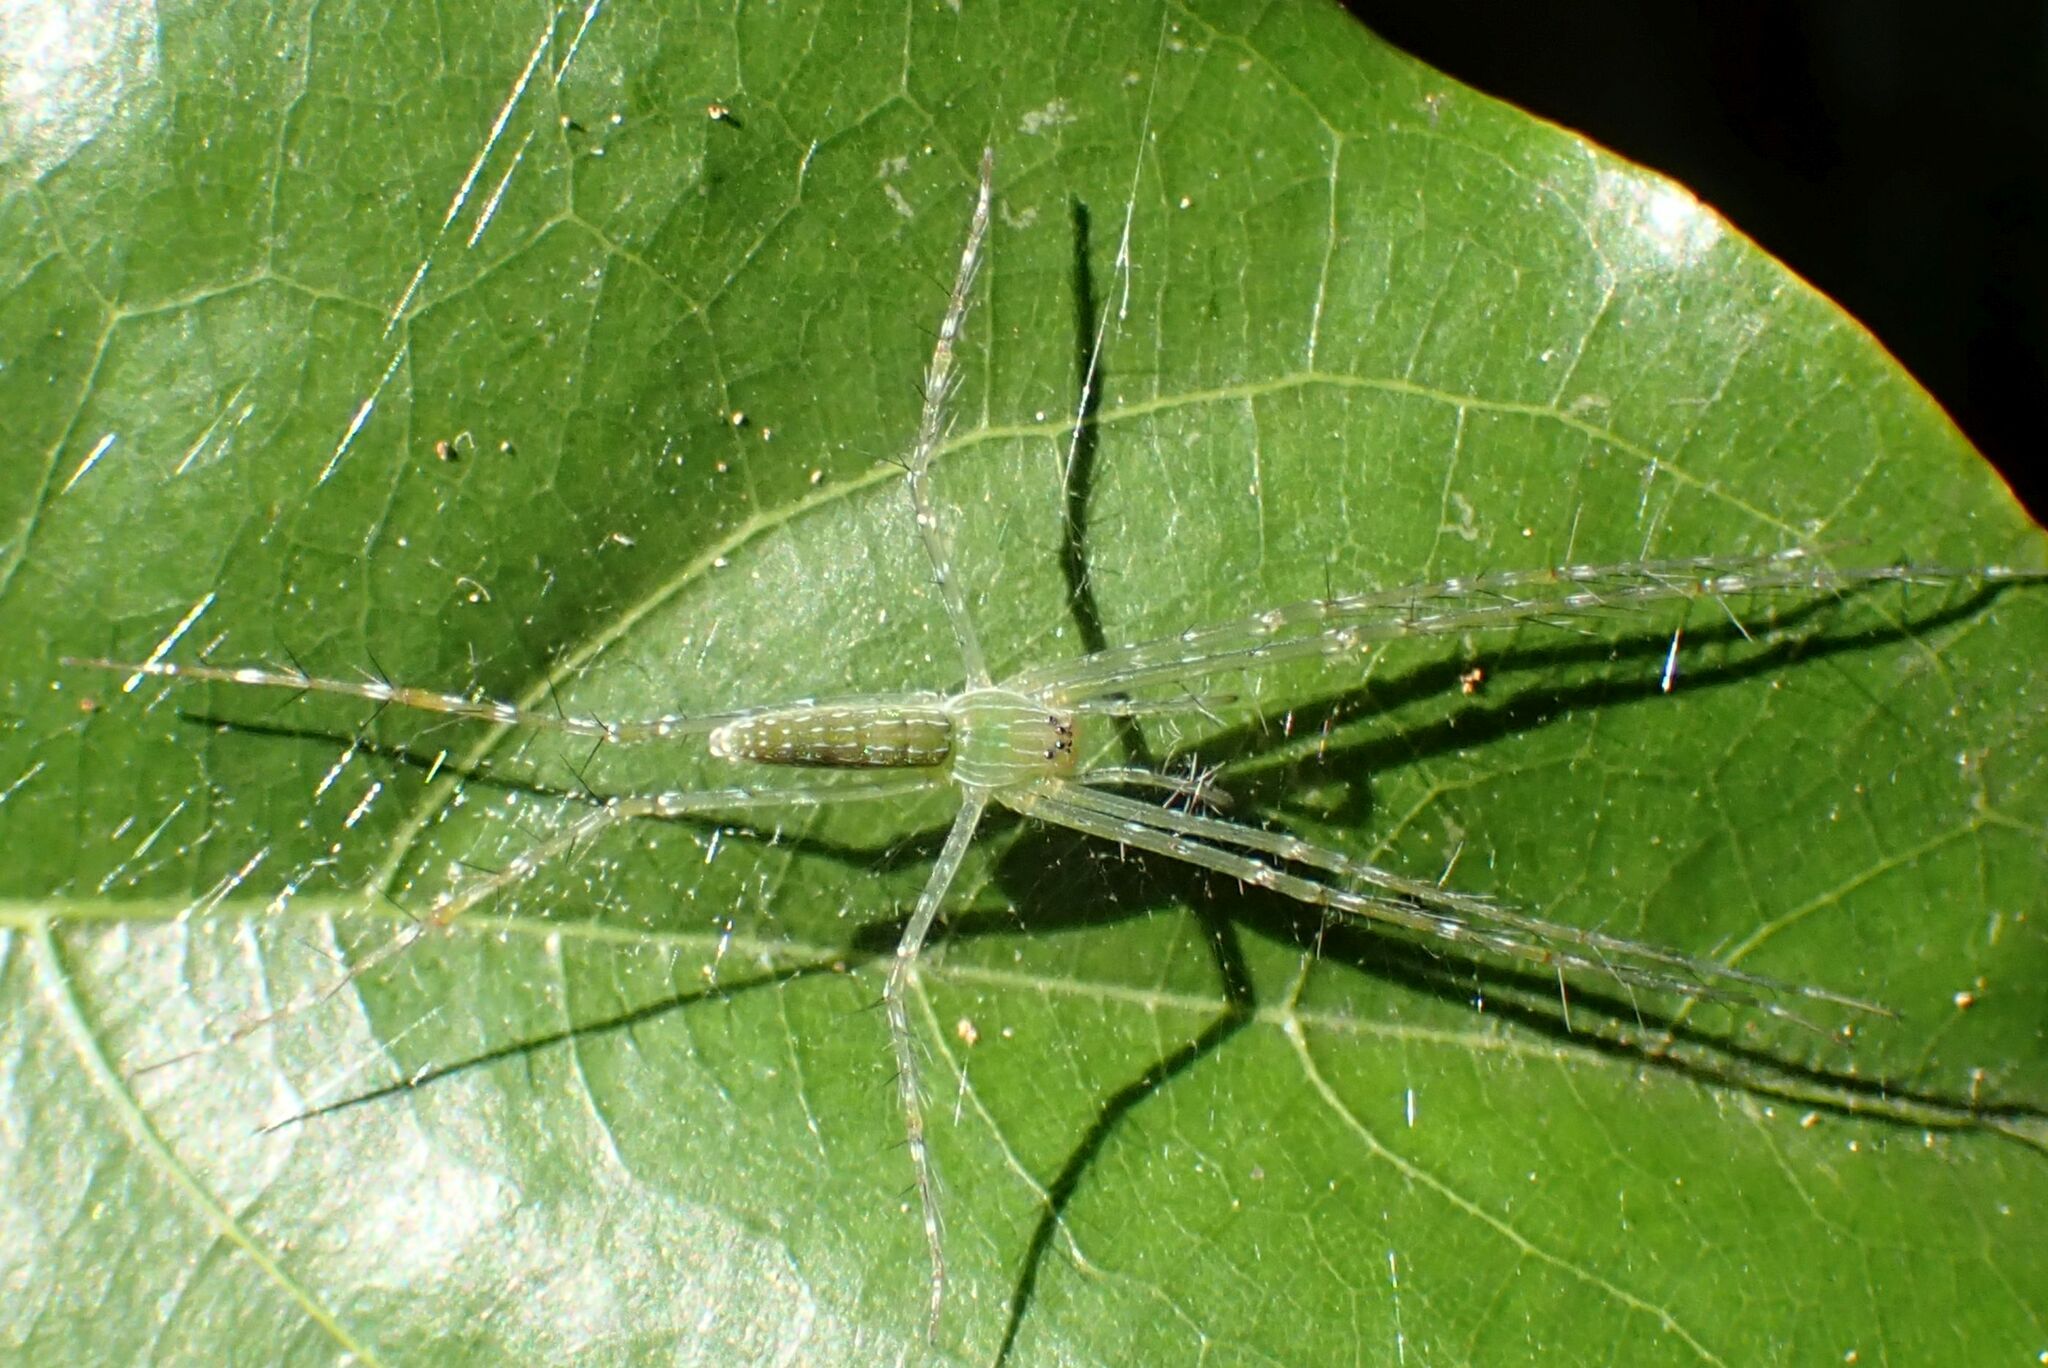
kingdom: Animalia
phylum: Arthropoda
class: Arachnida
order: Araneae
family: Pisauridae
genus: Hygropoda
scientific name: Hygropoda tangana
